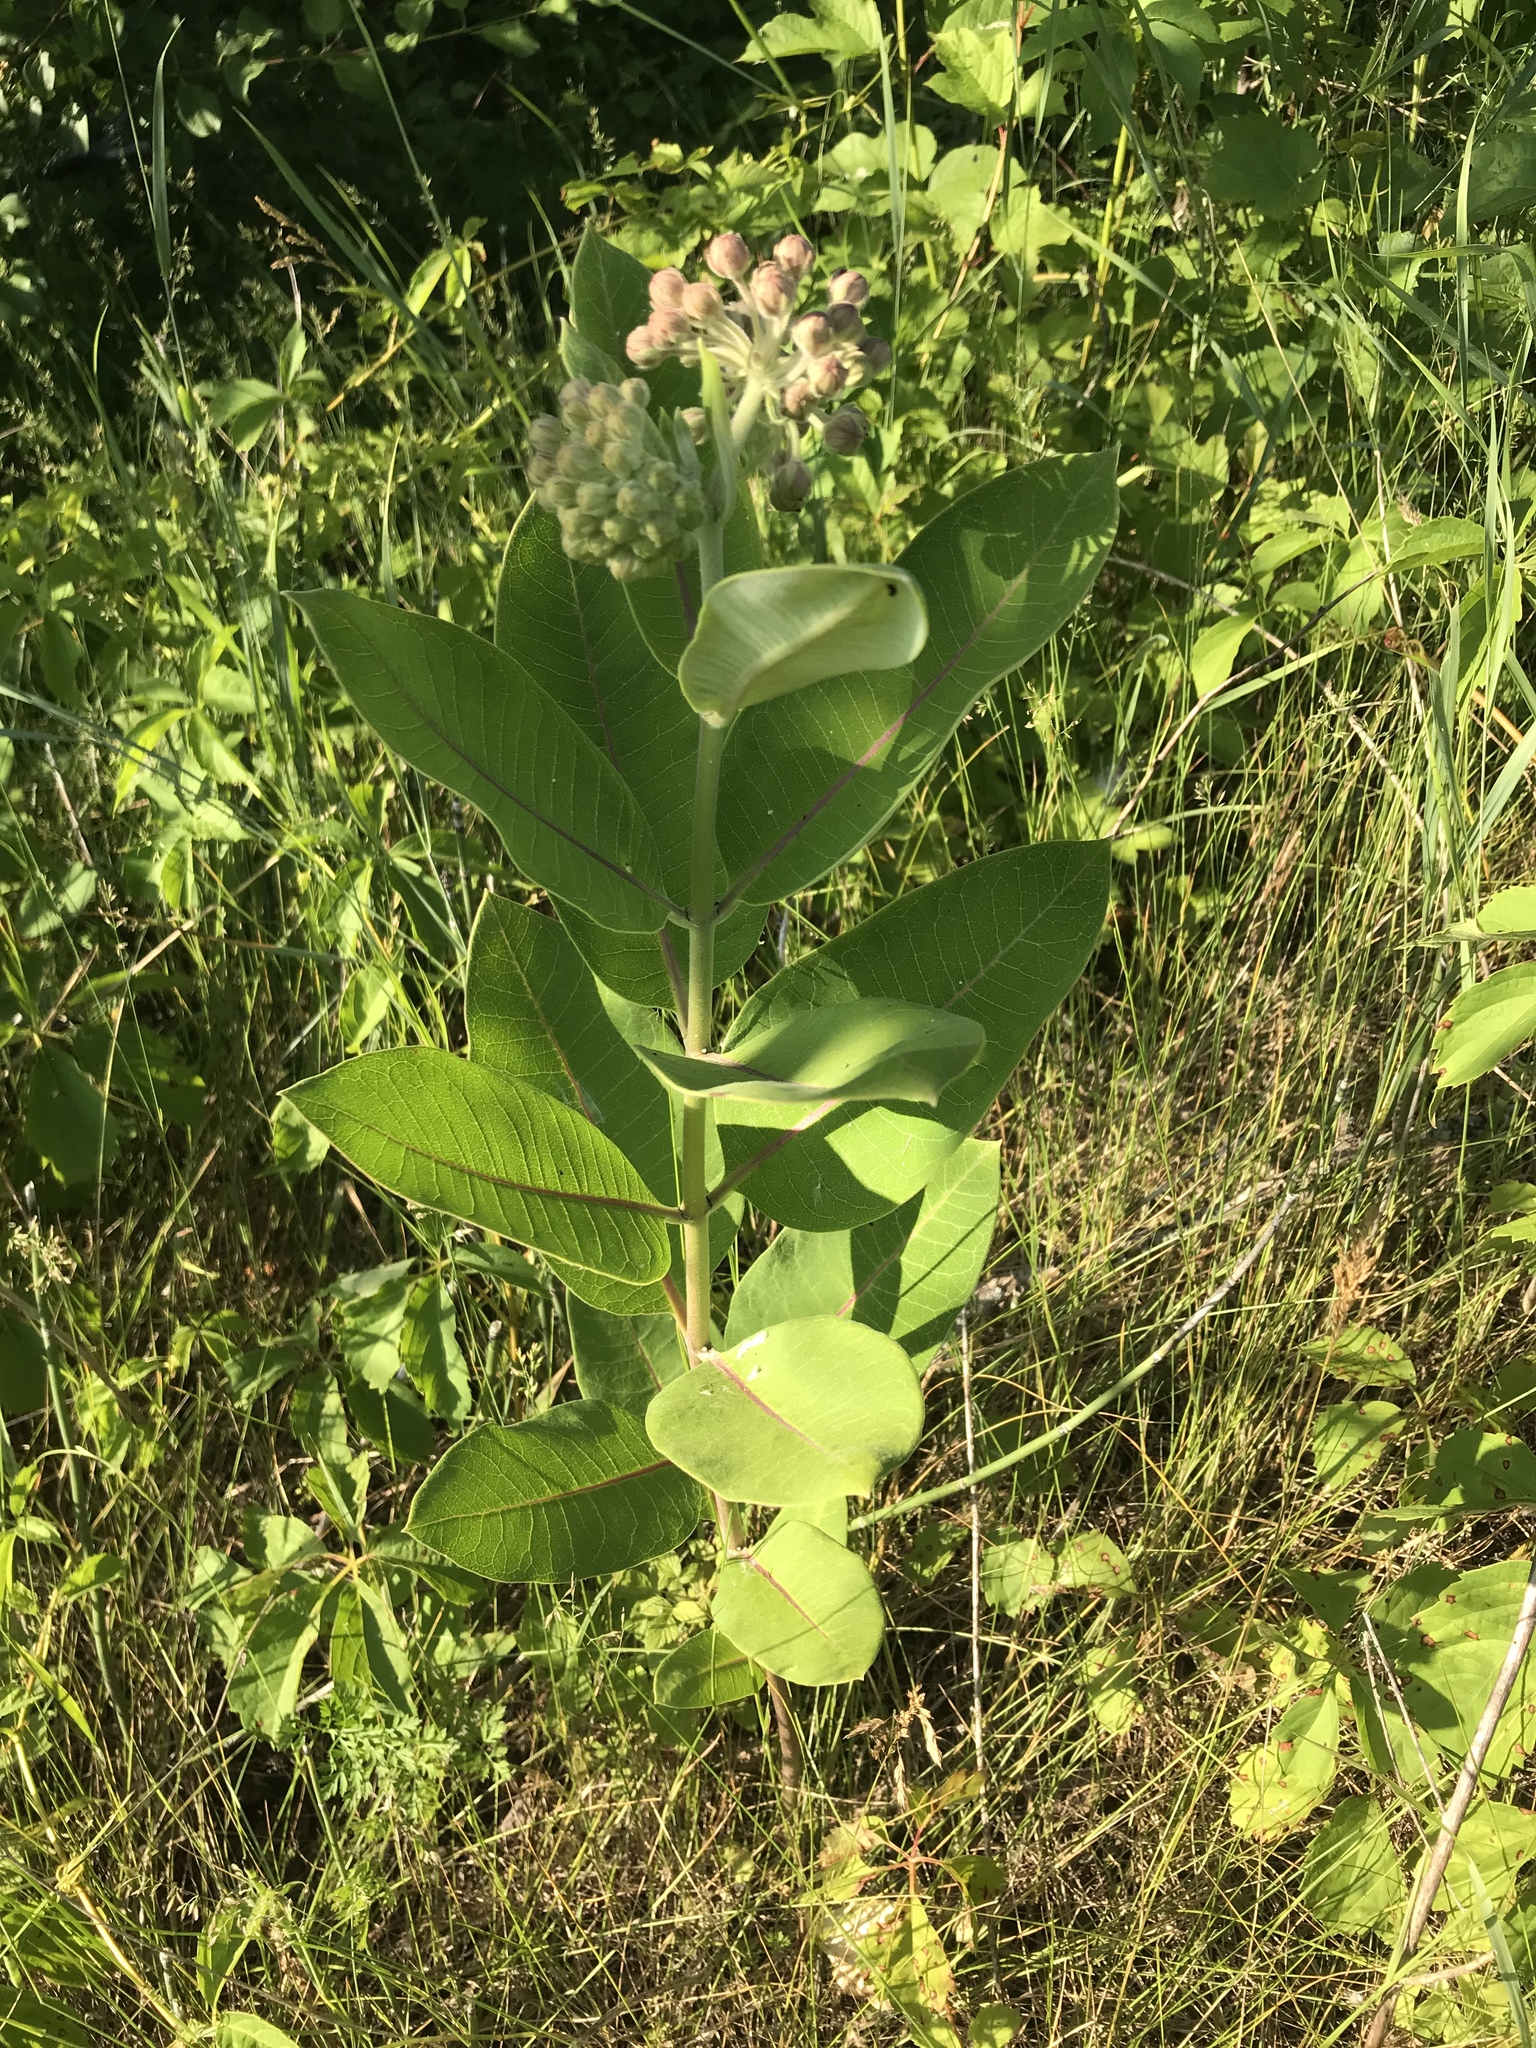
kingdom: Plantae
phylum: Tracheophyta
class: Magnoliopsida
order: Gentianales
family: Apocynaceae
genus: Asclepias
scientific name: Asclepias syriaca
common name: Common milkweed
